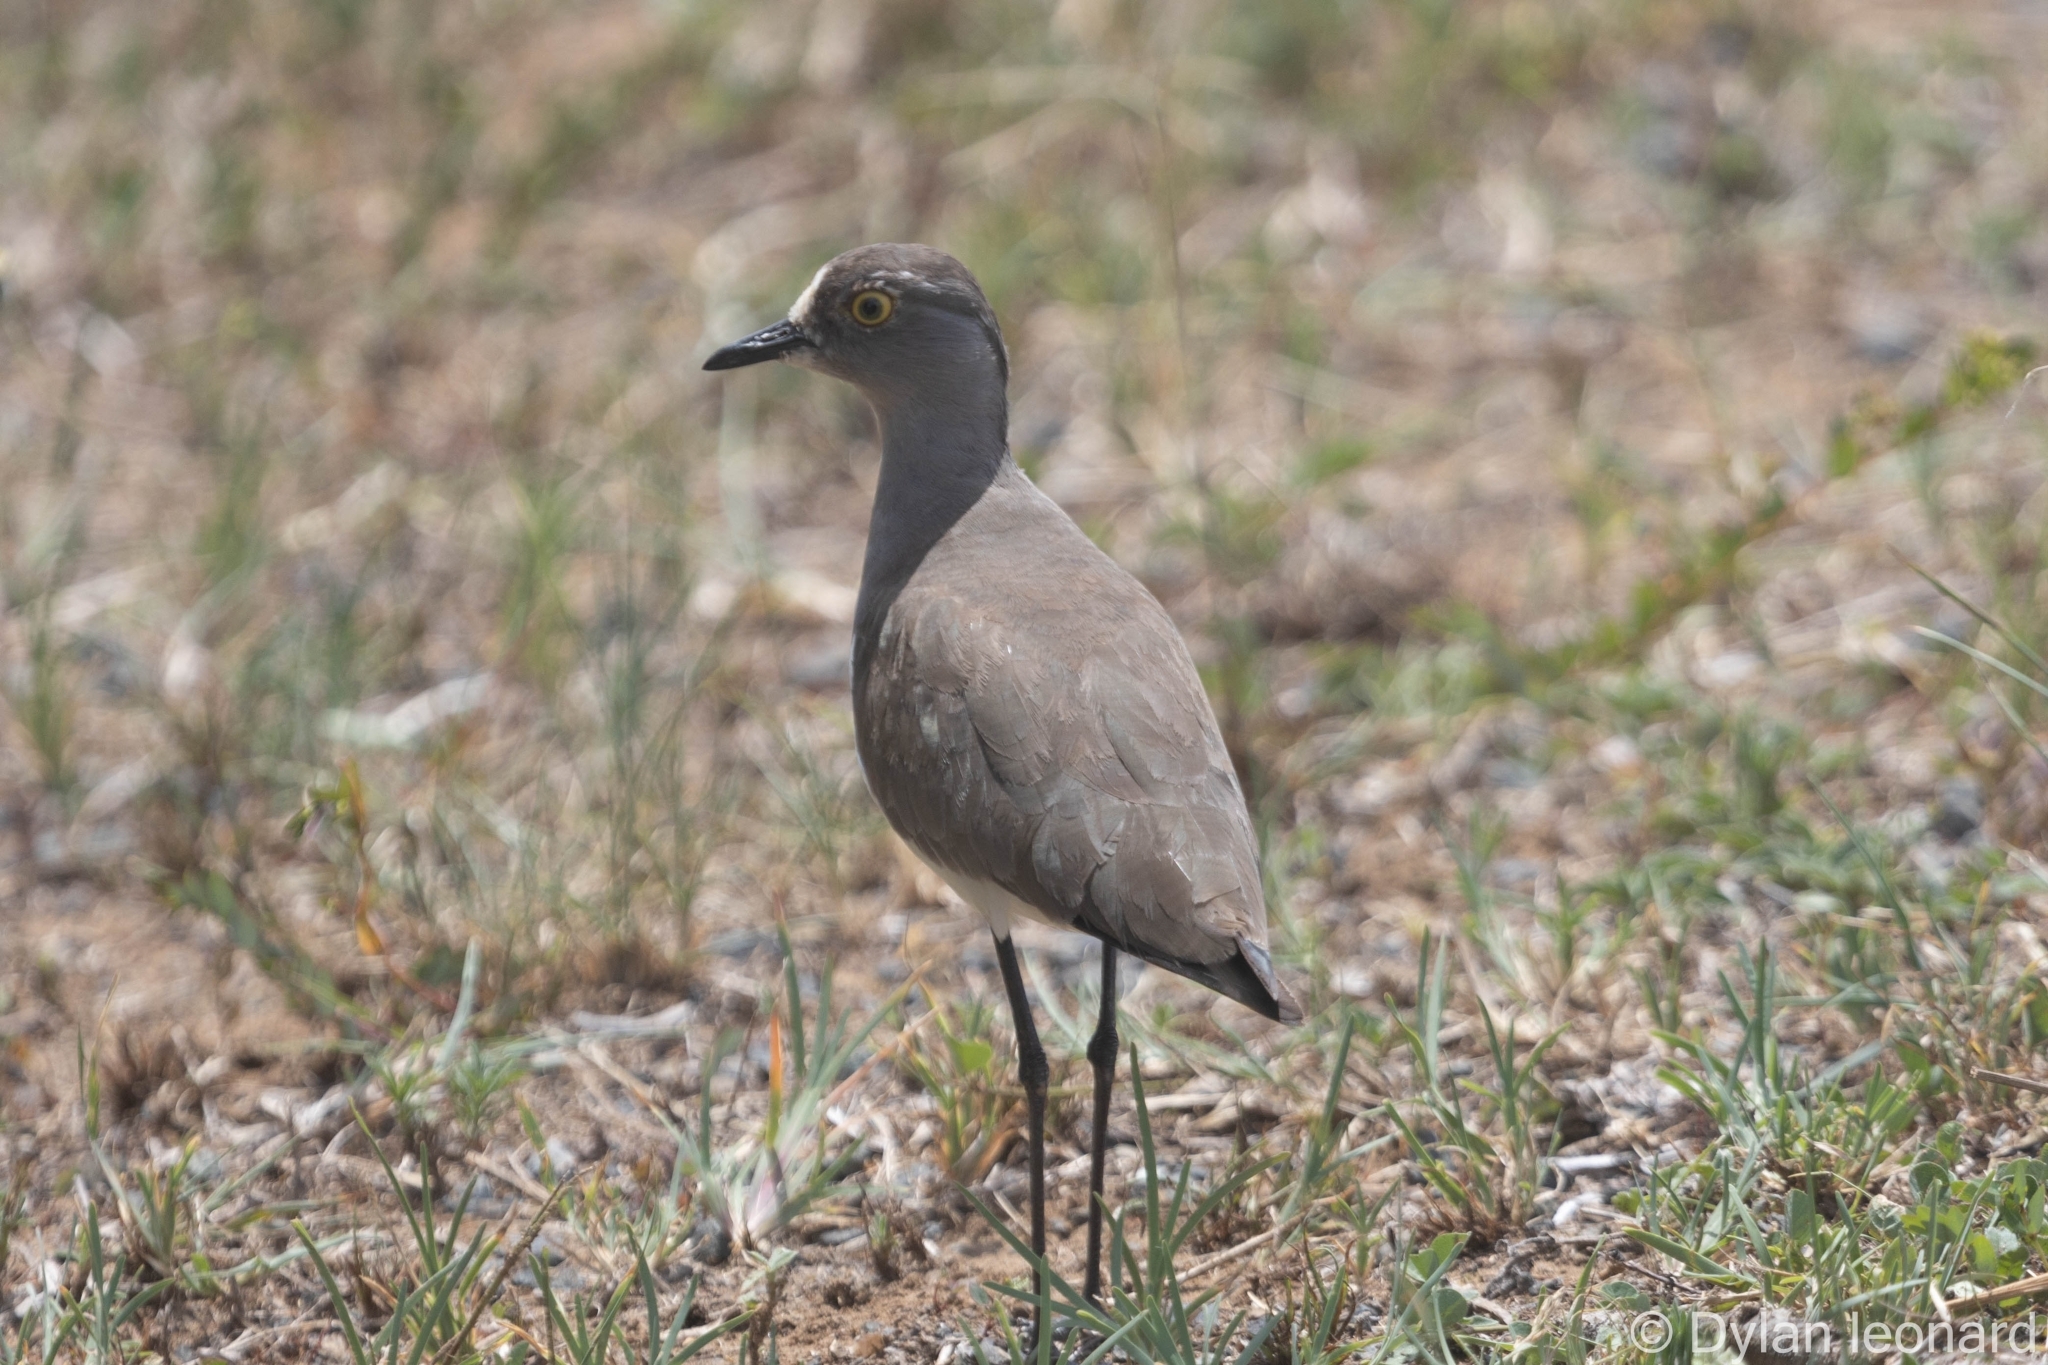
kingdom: Animalia
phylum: Chordata
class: Aves
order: Charadriiformes
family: Charadriidae
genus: Vanellus
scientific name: Vanellus lugubris
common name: Senegal lapwing
